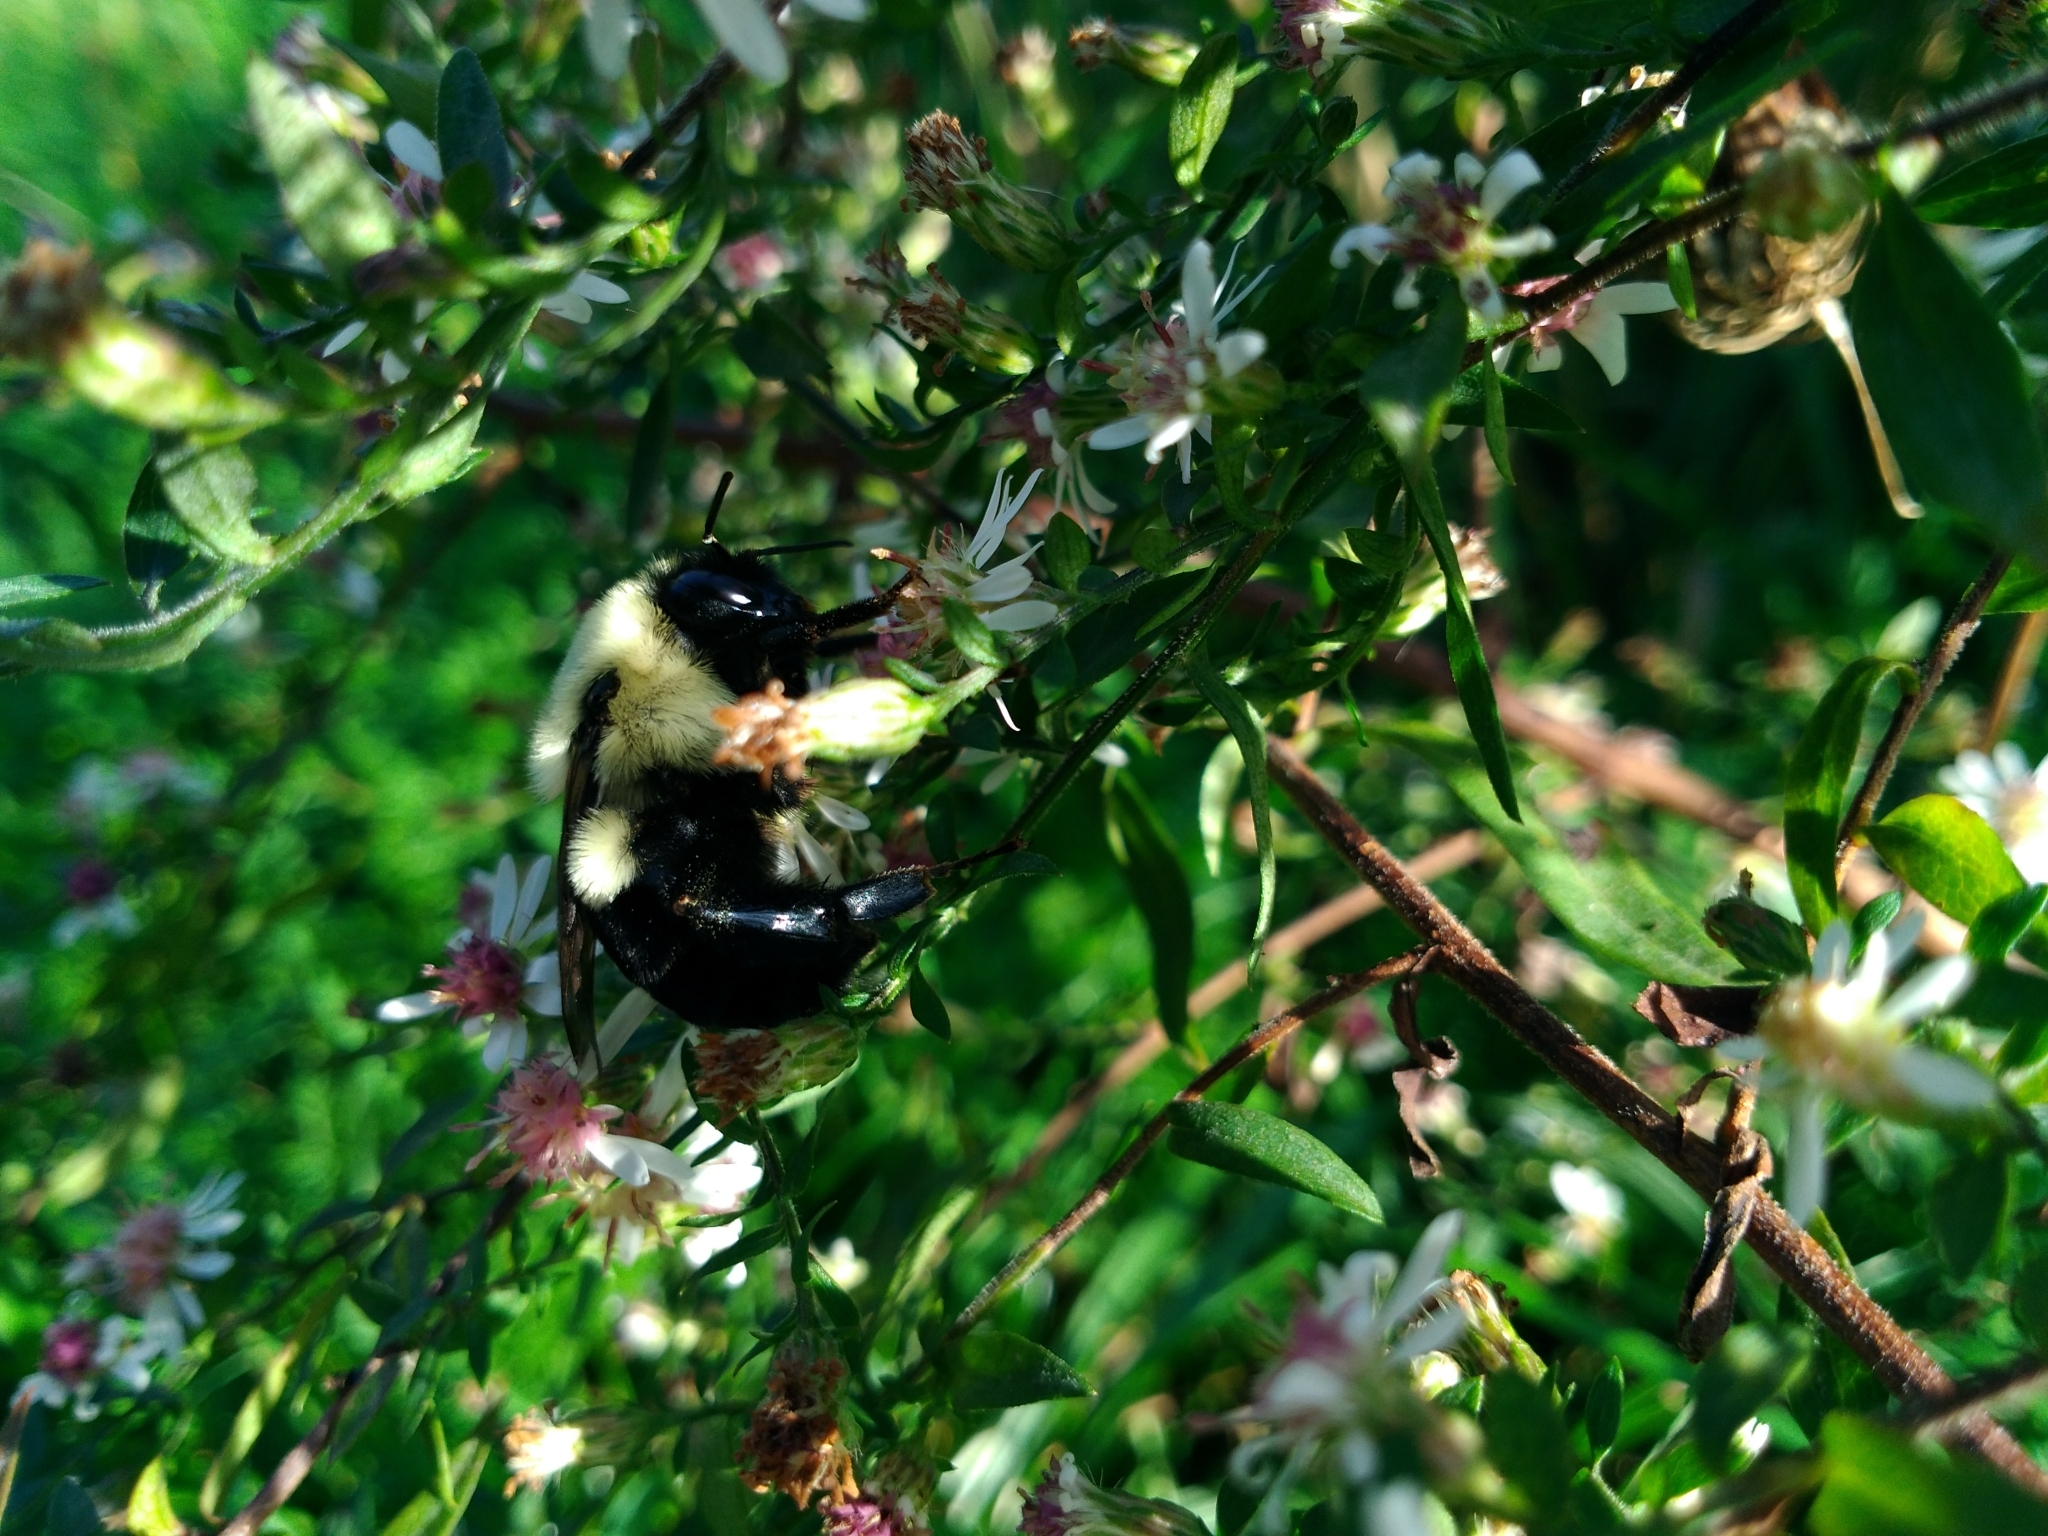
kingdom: Animalia
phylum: Arthropoda
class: Insecta
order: Hymenoptera
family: Apidae
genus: Bombus
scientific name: Bombus impatiens
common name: Common eastern bumble bee
